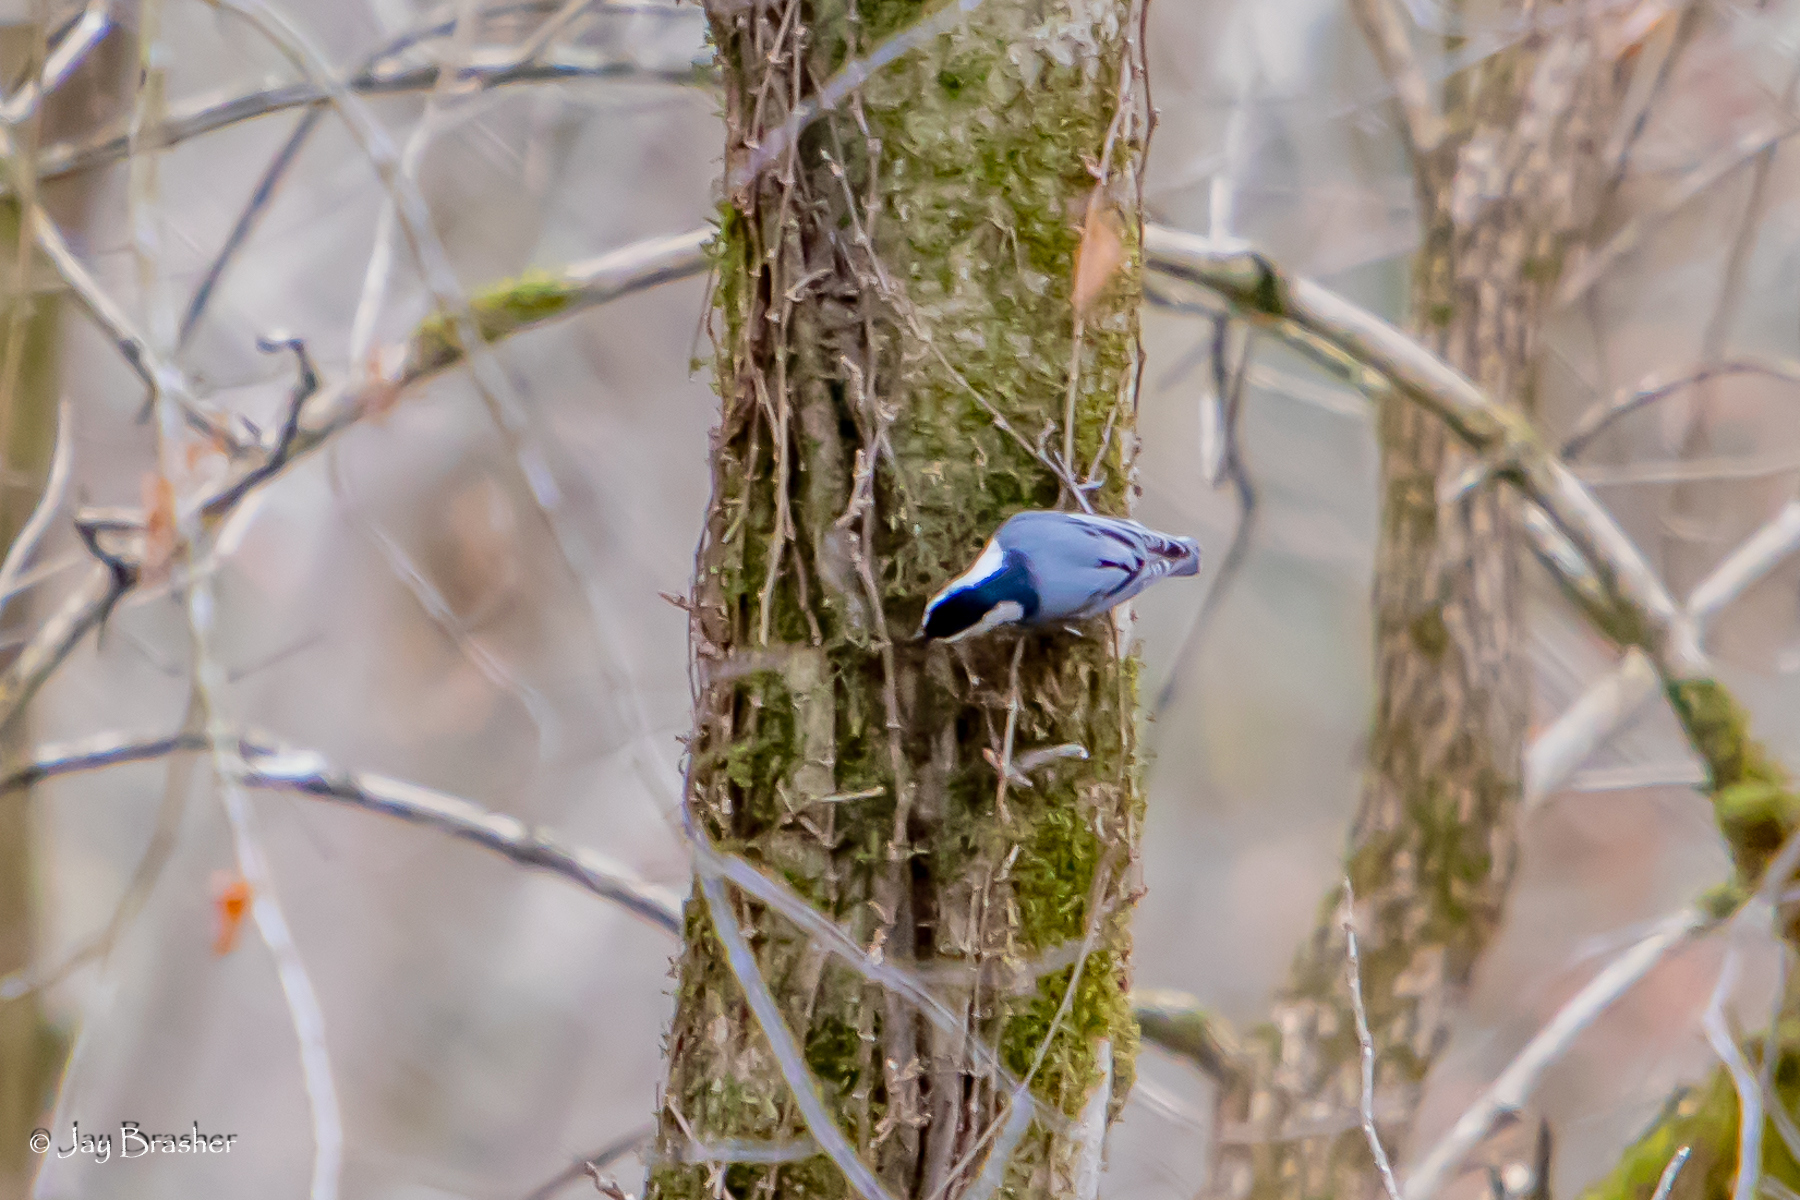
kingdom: Animalia
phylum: Chordata
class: Aves
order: Passeriformes
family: Sittidae
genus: Sitta
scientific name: Sitta carolinensis
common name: White-breasted nuthatch
